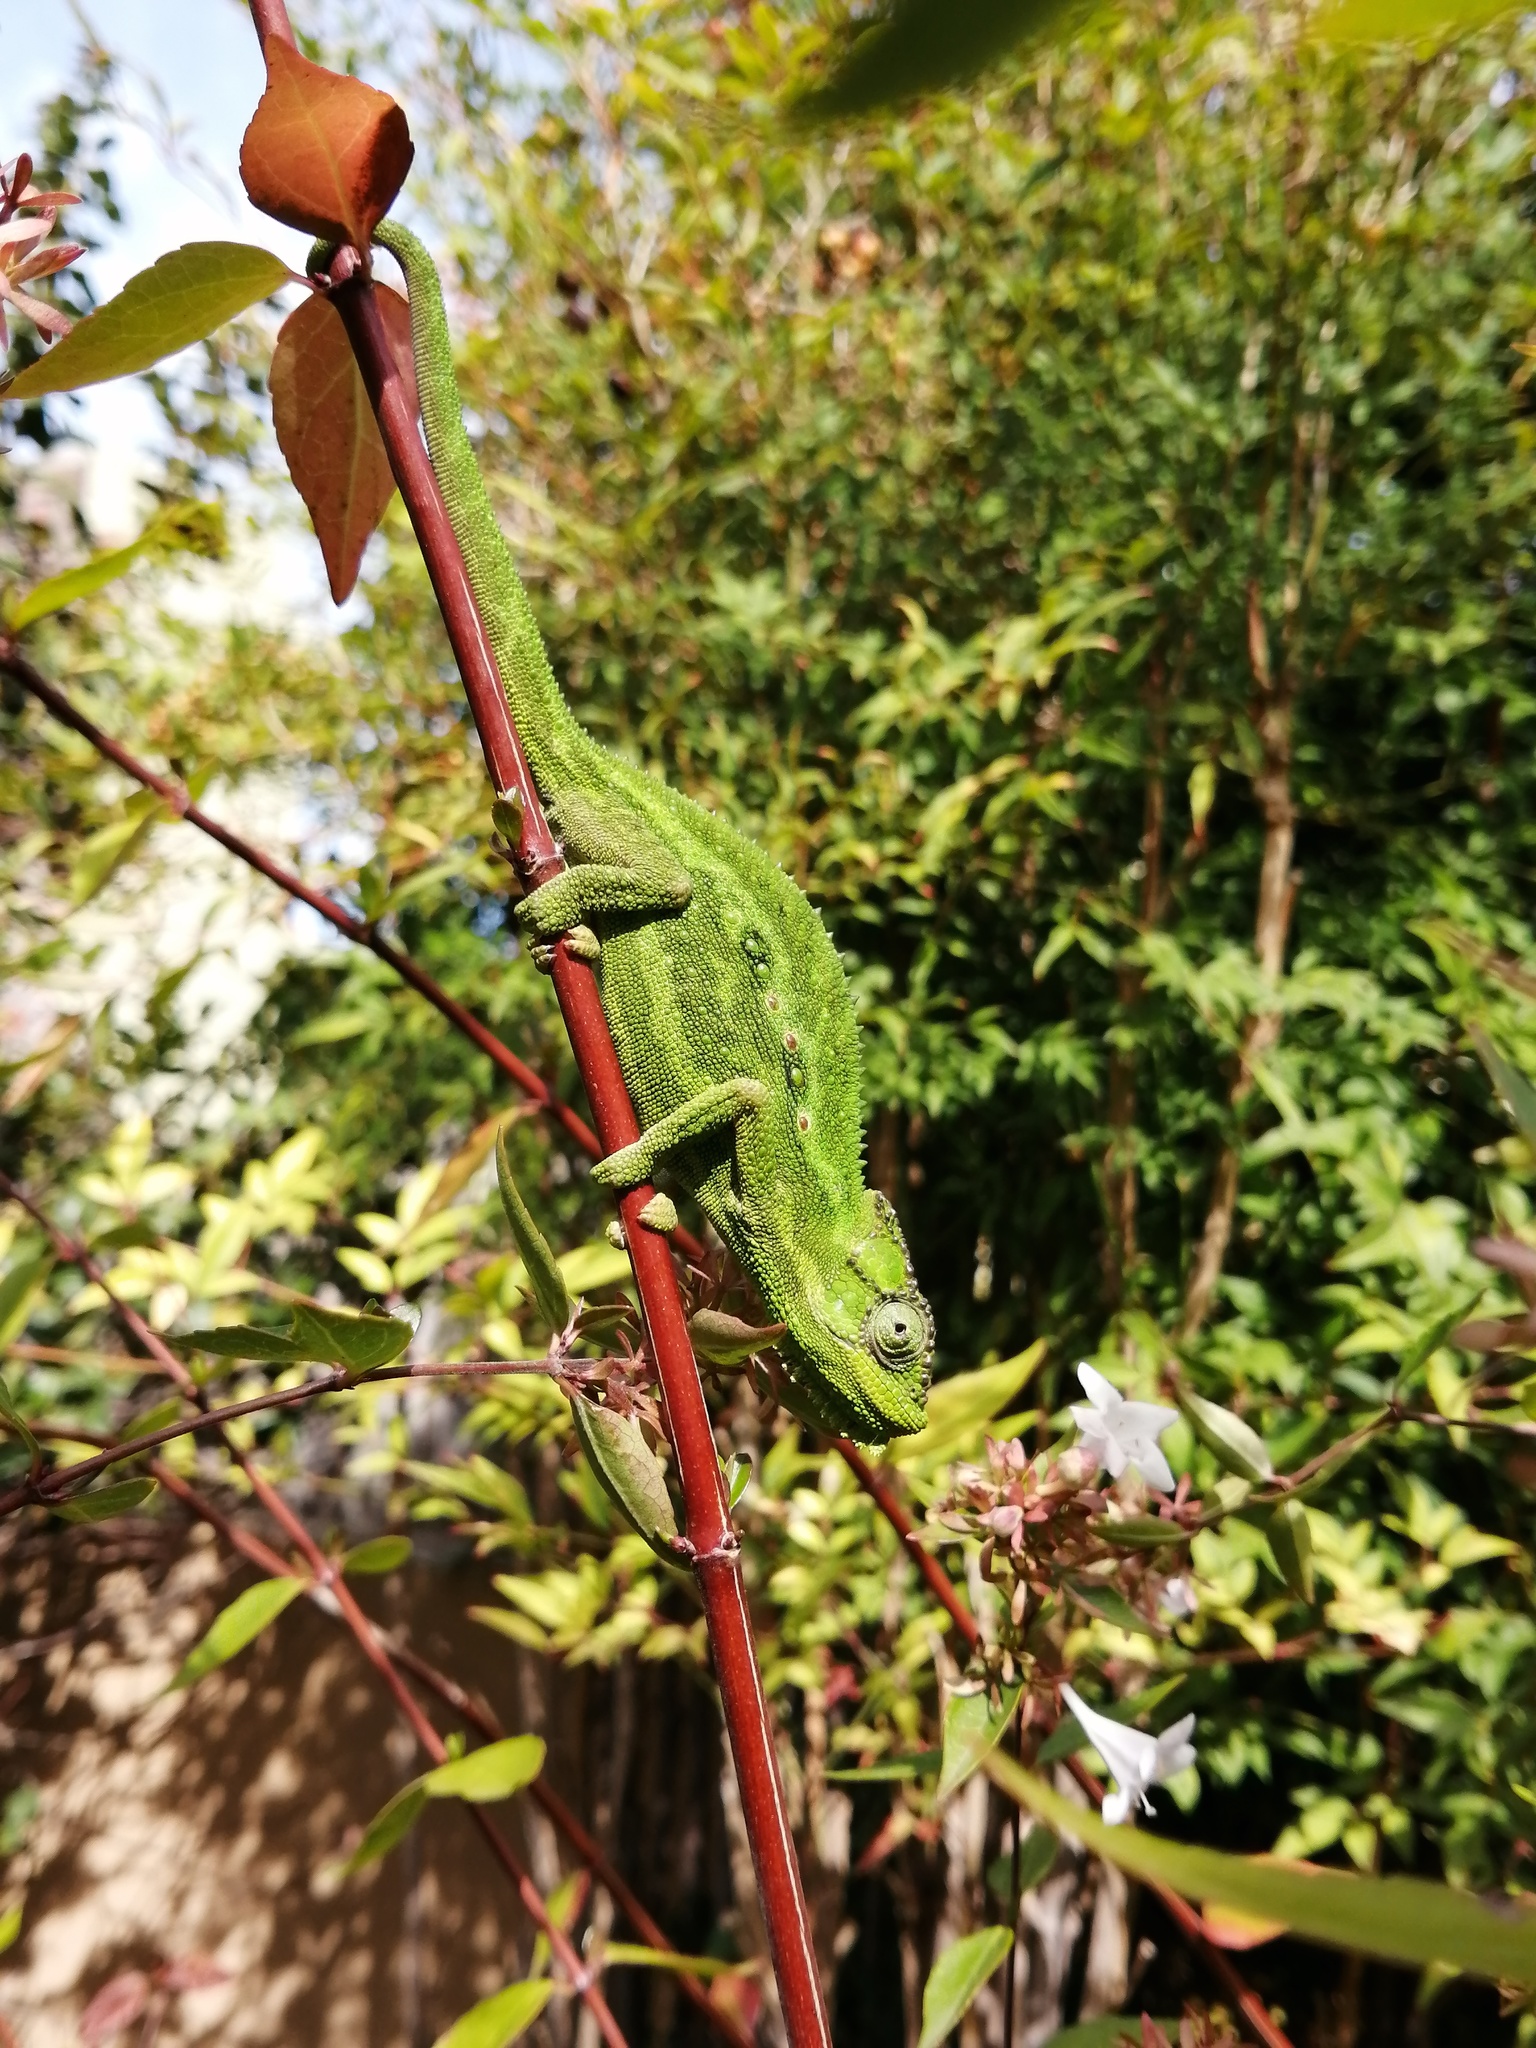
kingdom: Animalia
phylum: Chordata
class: Squamata
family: Chamaeleonidae
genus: Bradypodion
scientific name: Bradypodion pumilum
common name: Cape dwarf chameleon
